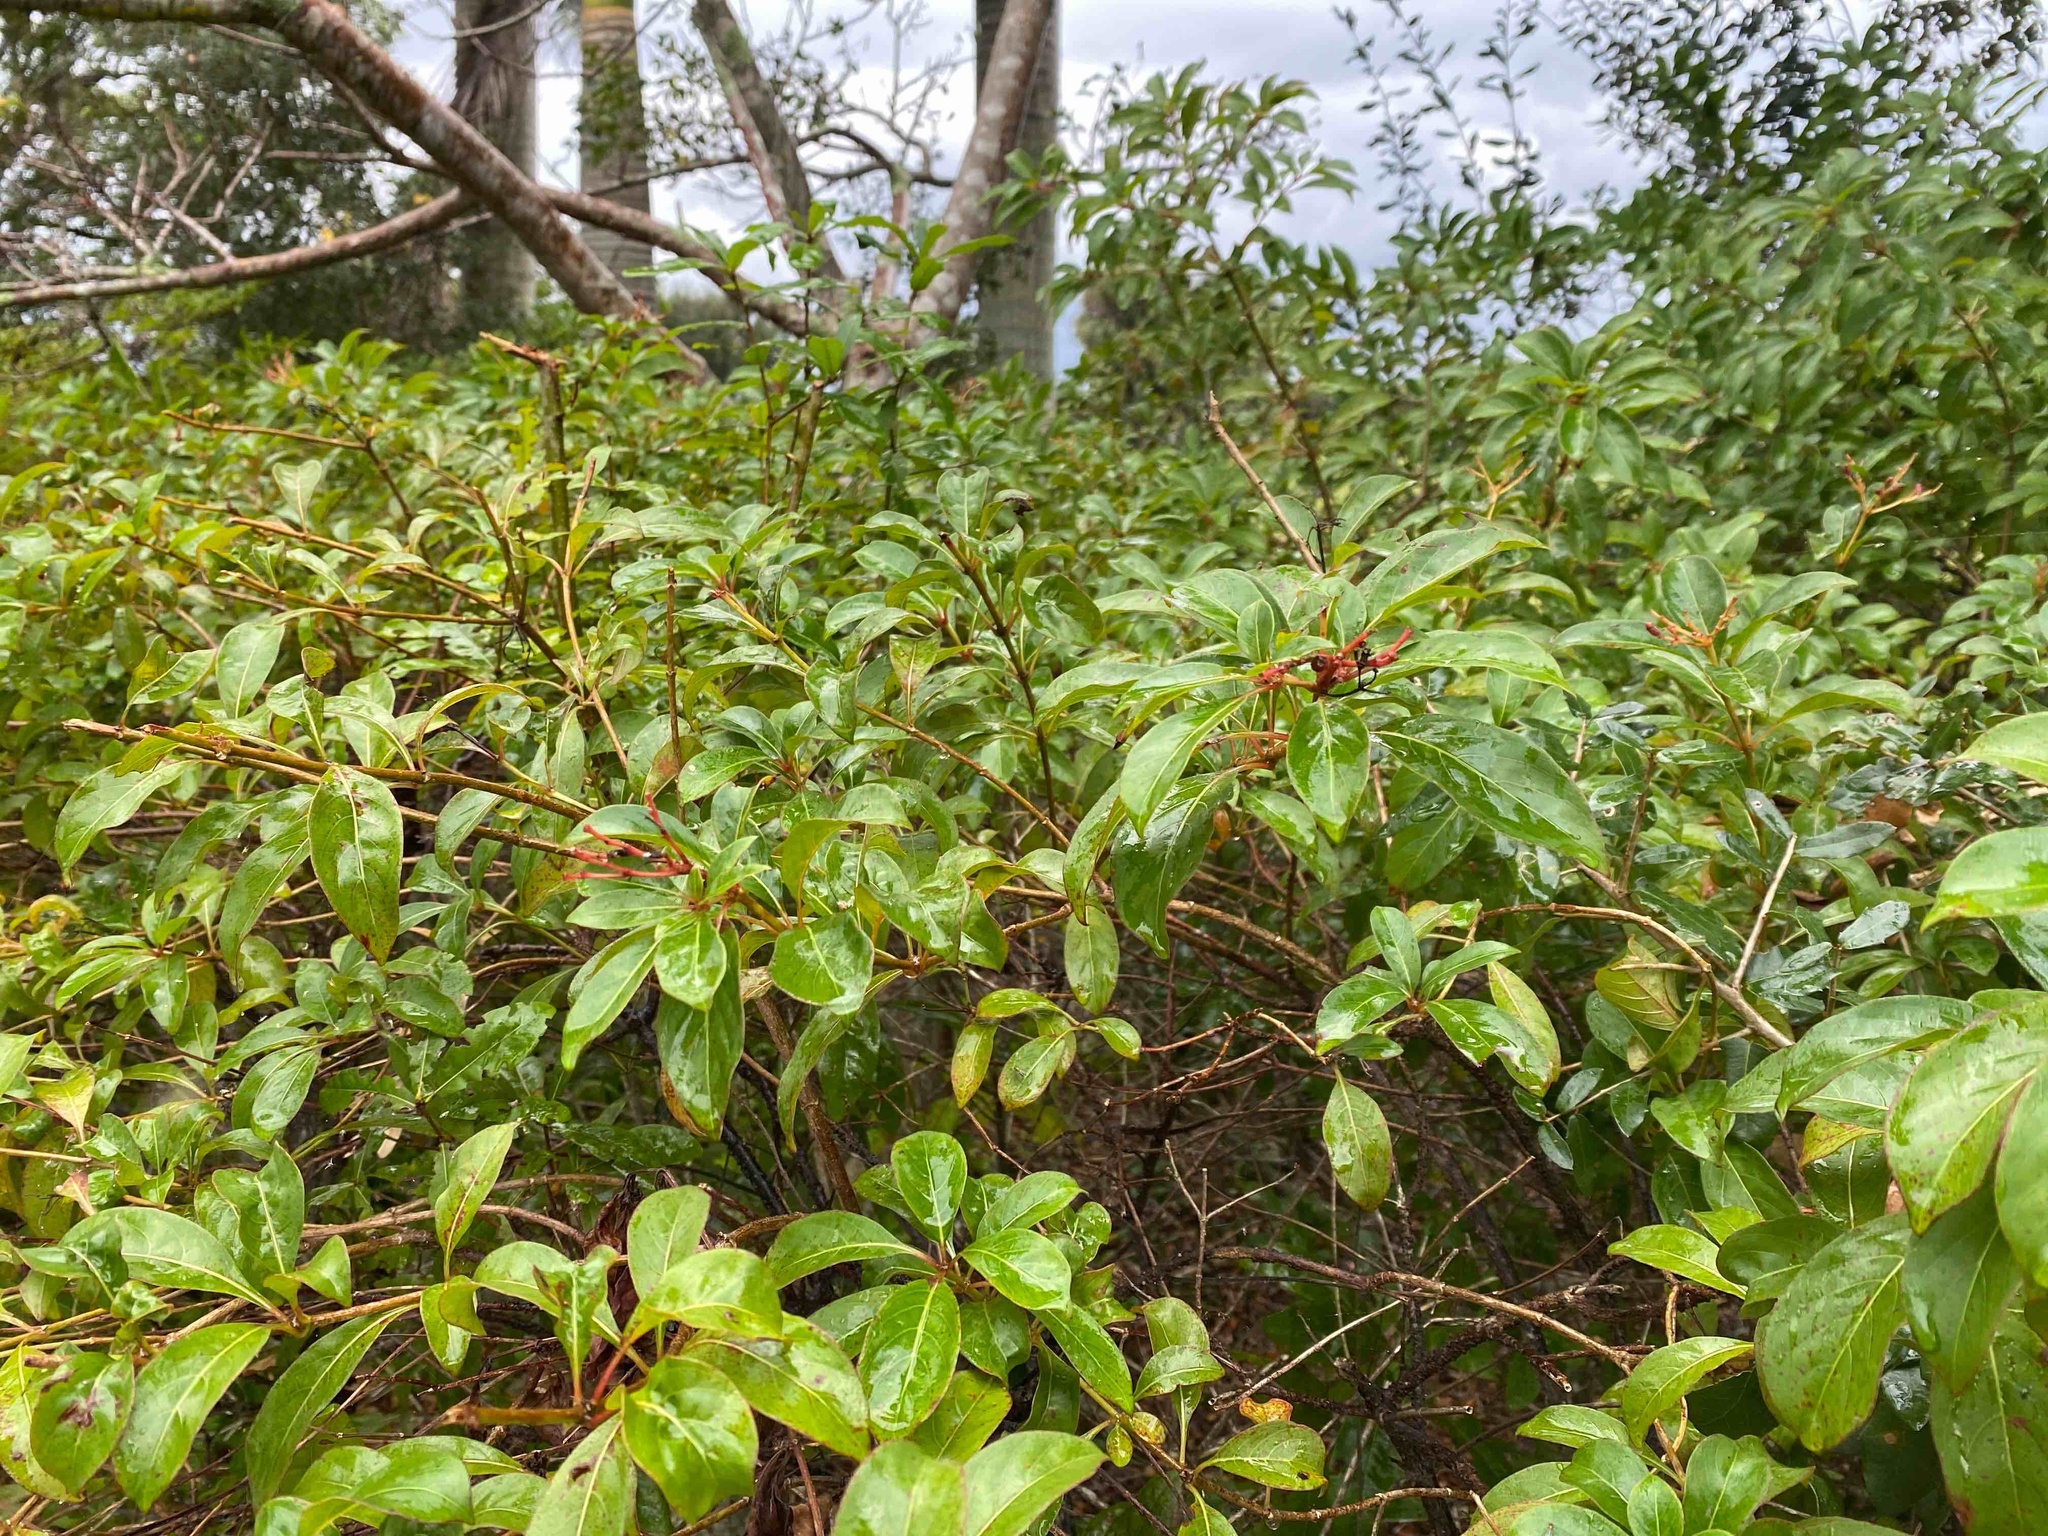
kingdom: Plantae
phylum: Tracheophyta
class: Magnoliopsida
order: Gentianales
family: Rubiaceae
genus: Hamelia
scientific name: Hamelia patens
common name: Redhead
